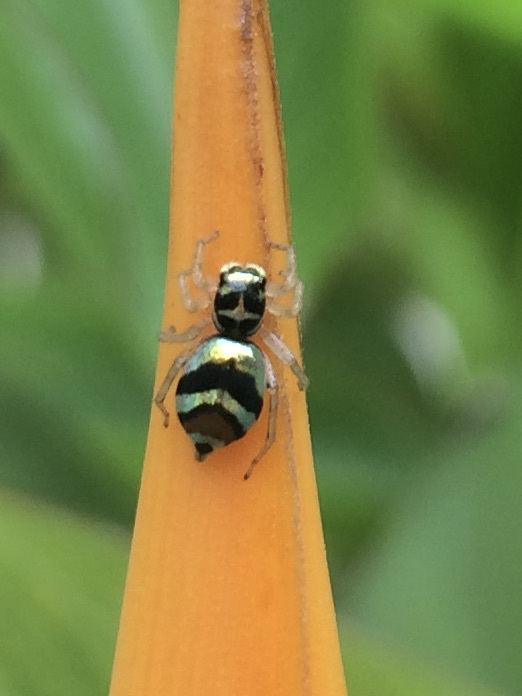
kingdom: Animalia
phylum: Arthropoda
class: Arachnida
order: Araneae
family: Salticidae
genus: Phintella
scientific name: Phintella vittata
